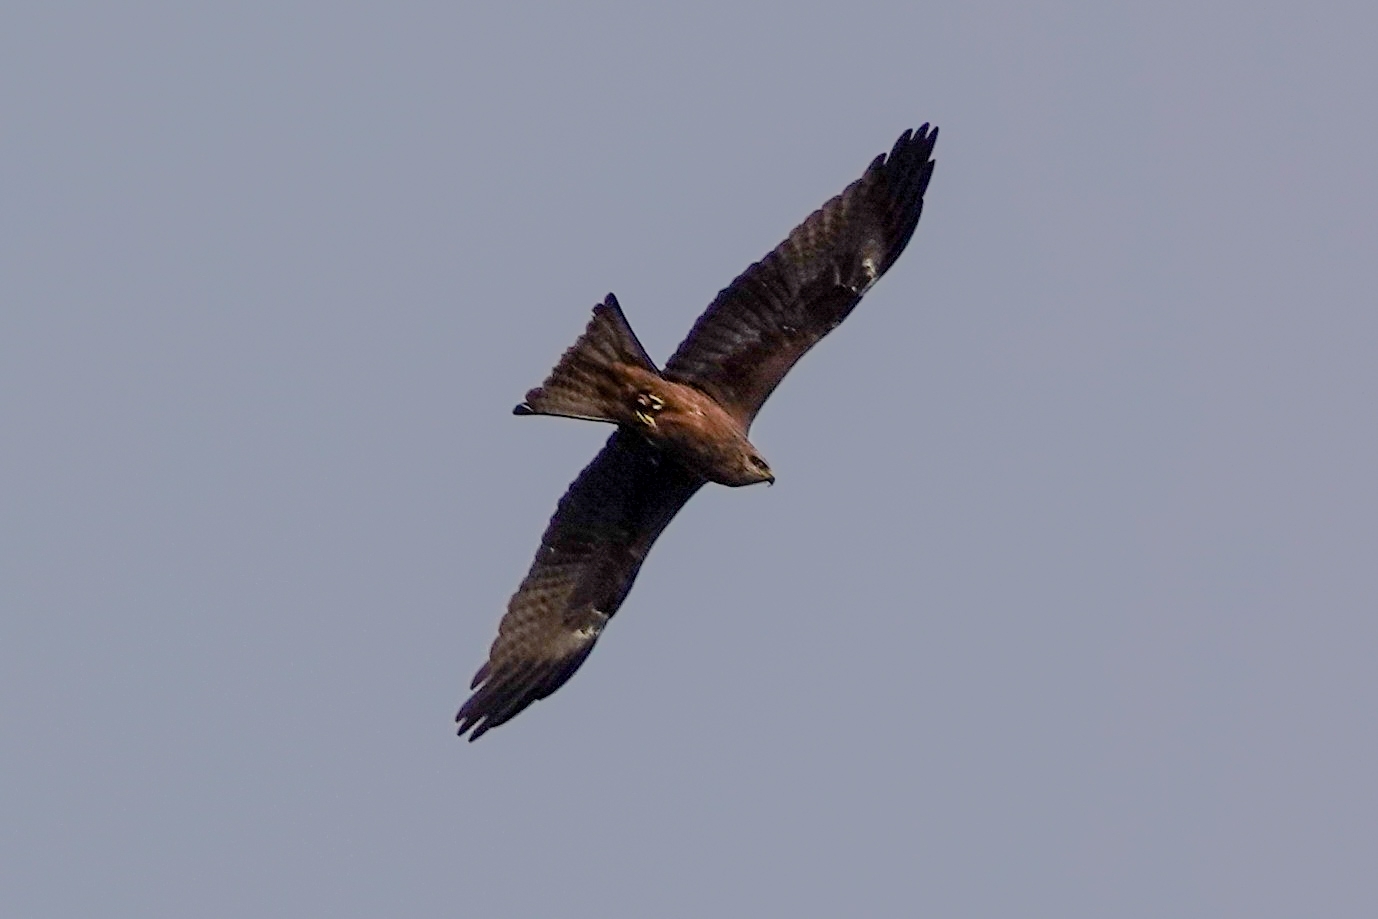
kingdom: Animalia
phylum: Chordata
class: Aves
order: Accipitriformes
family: Accipitridae
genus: Milvus
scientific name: Milvus migrans
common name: Black kite
